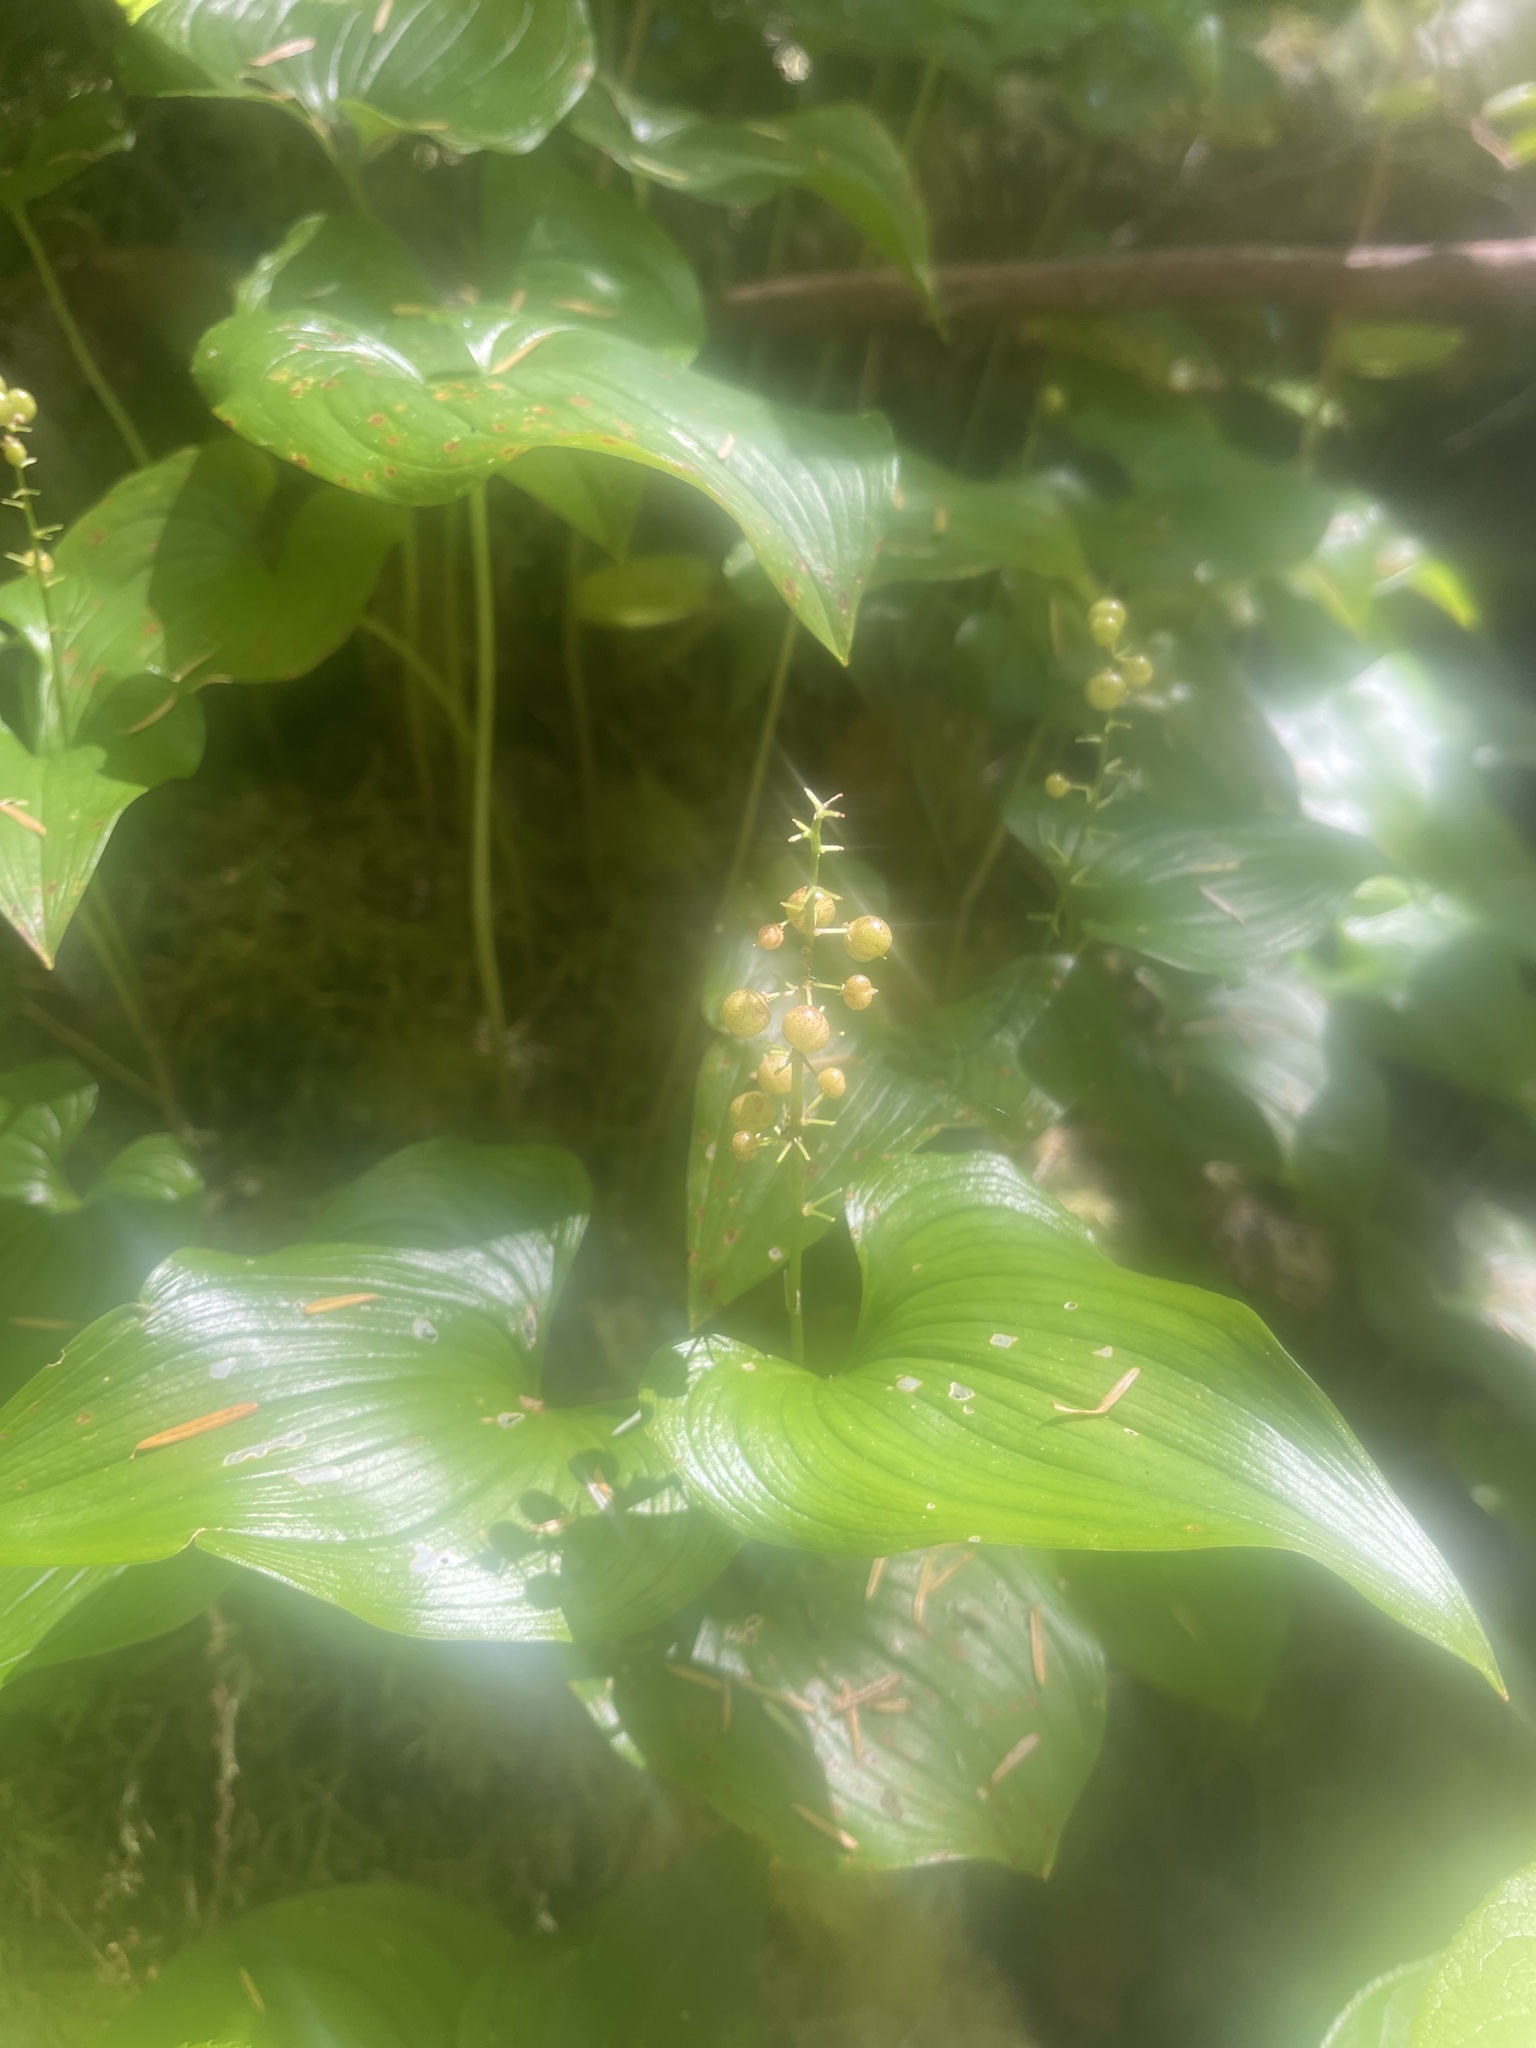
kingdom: Plantae
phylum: Tracheophyta
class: Liliopsida
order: Asparagales
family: Asparagaceae
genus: Maianthemum
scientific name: Maianthemum dilatatum
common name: False lily-of-the-valley
